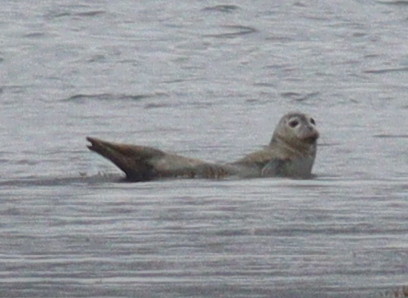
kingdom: Animalia
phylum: Chordata
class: Mammalia
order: Carnivora
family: Phocidae
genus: Phoca
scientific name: Phoca vitulina
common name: Harbor seal
